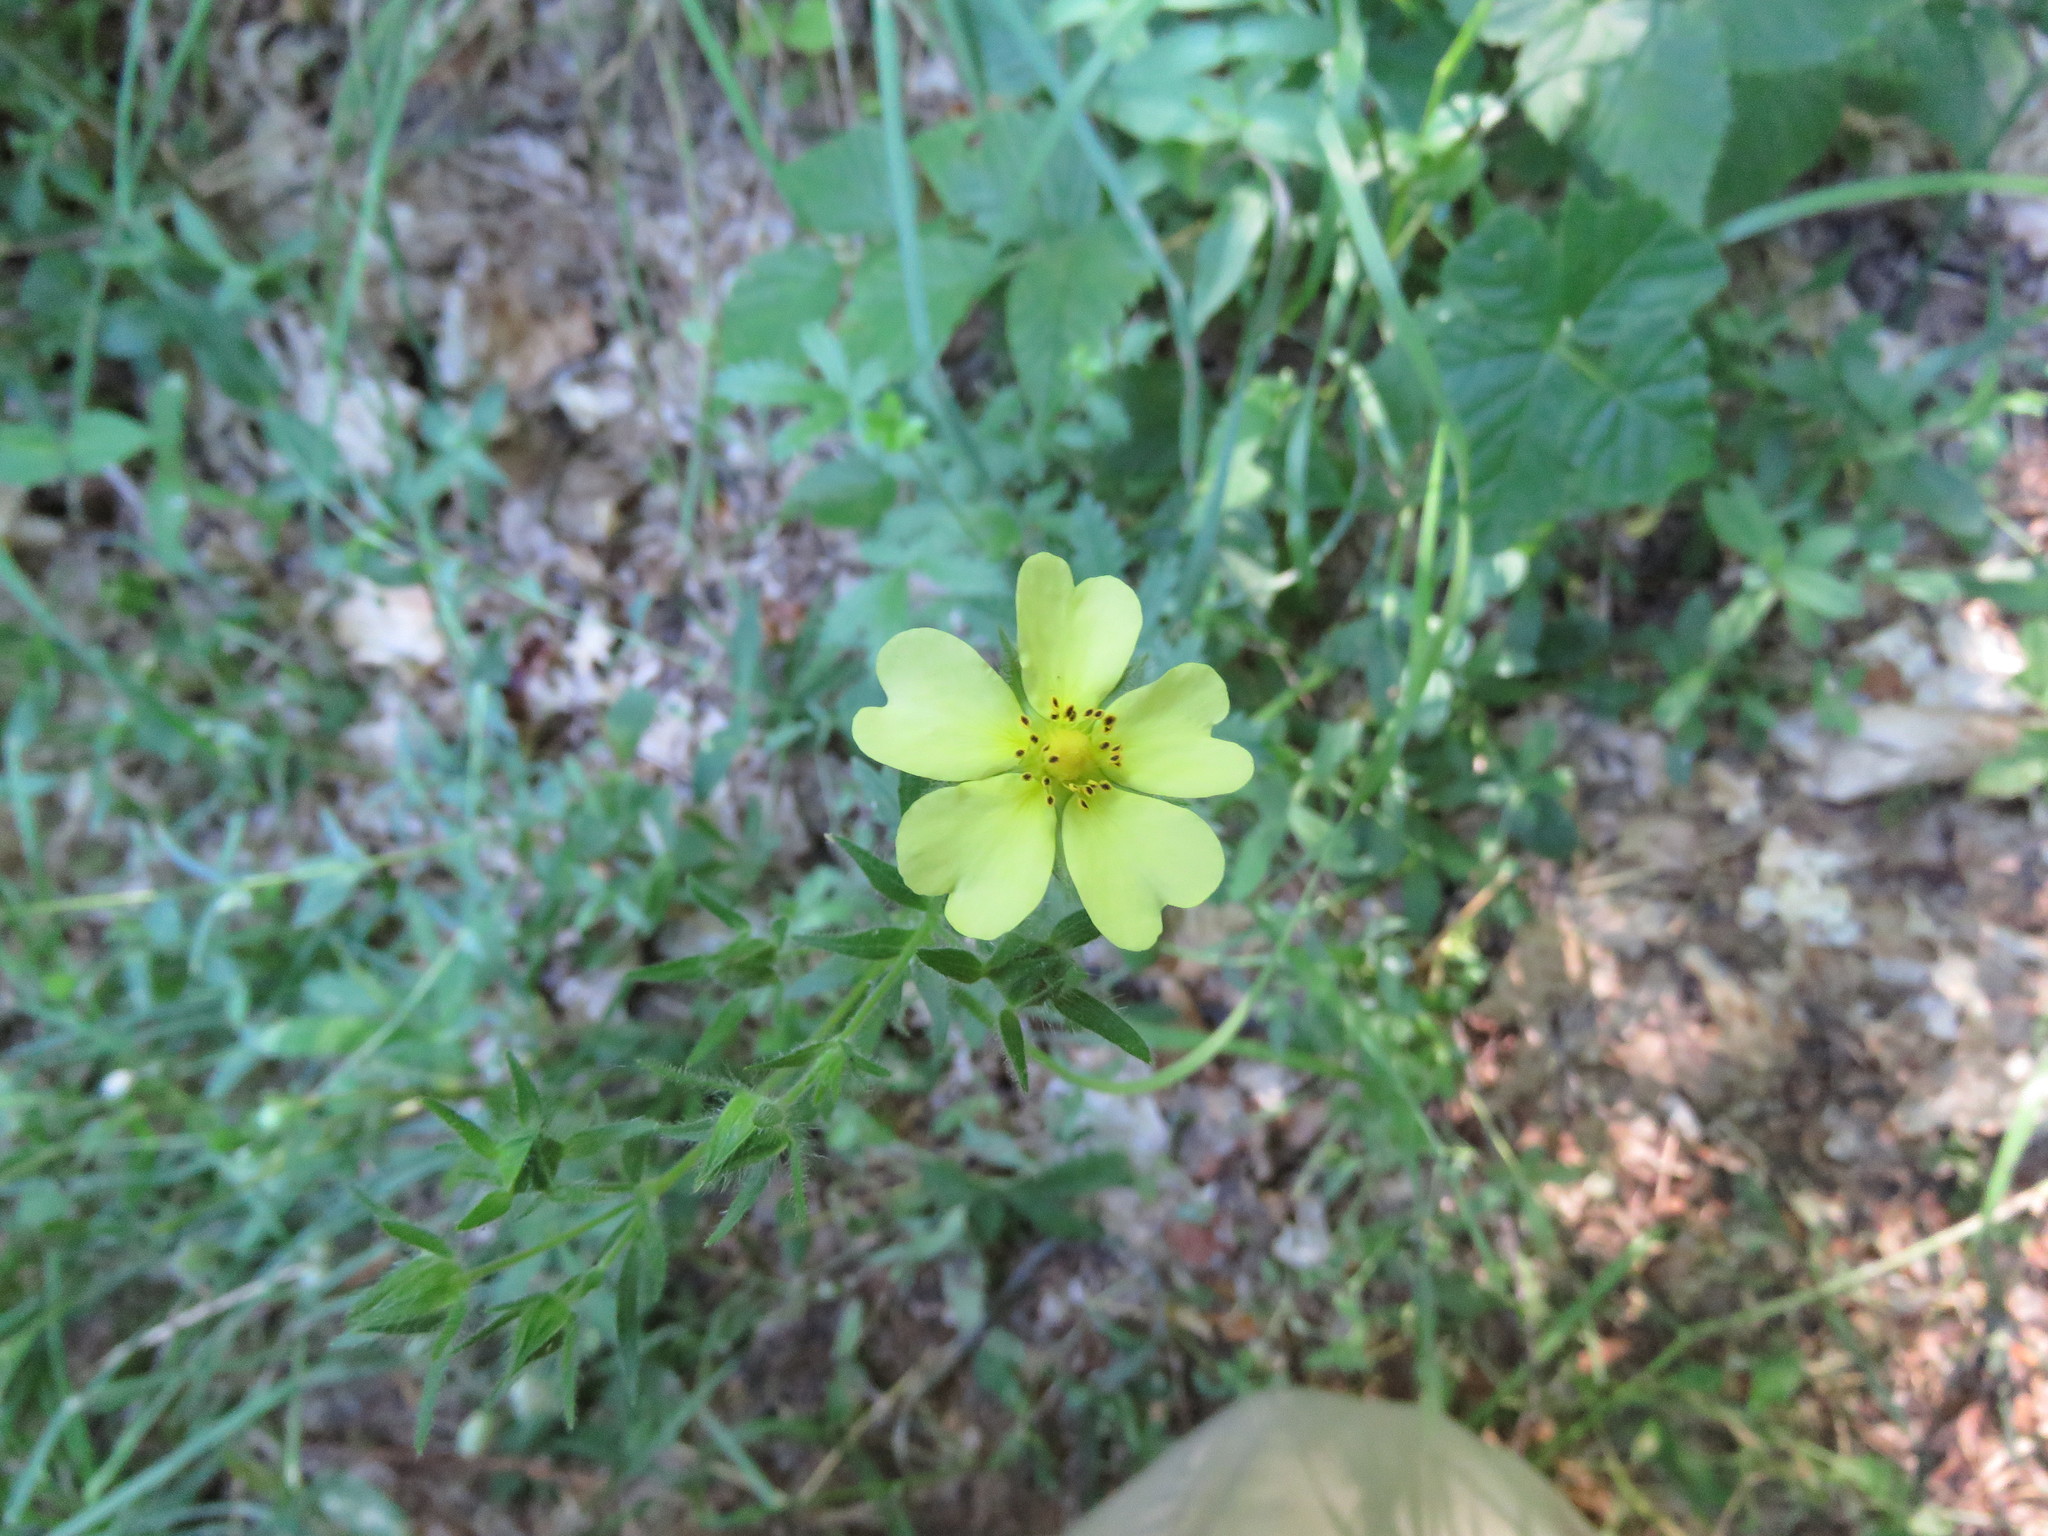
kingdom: Plantae
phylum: Tracheophyta
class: Magnoliopsida
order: Rosales
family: Rosaceae
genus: Potentilla
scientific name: Potentilla recta
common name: Sulphur cinquefoil
